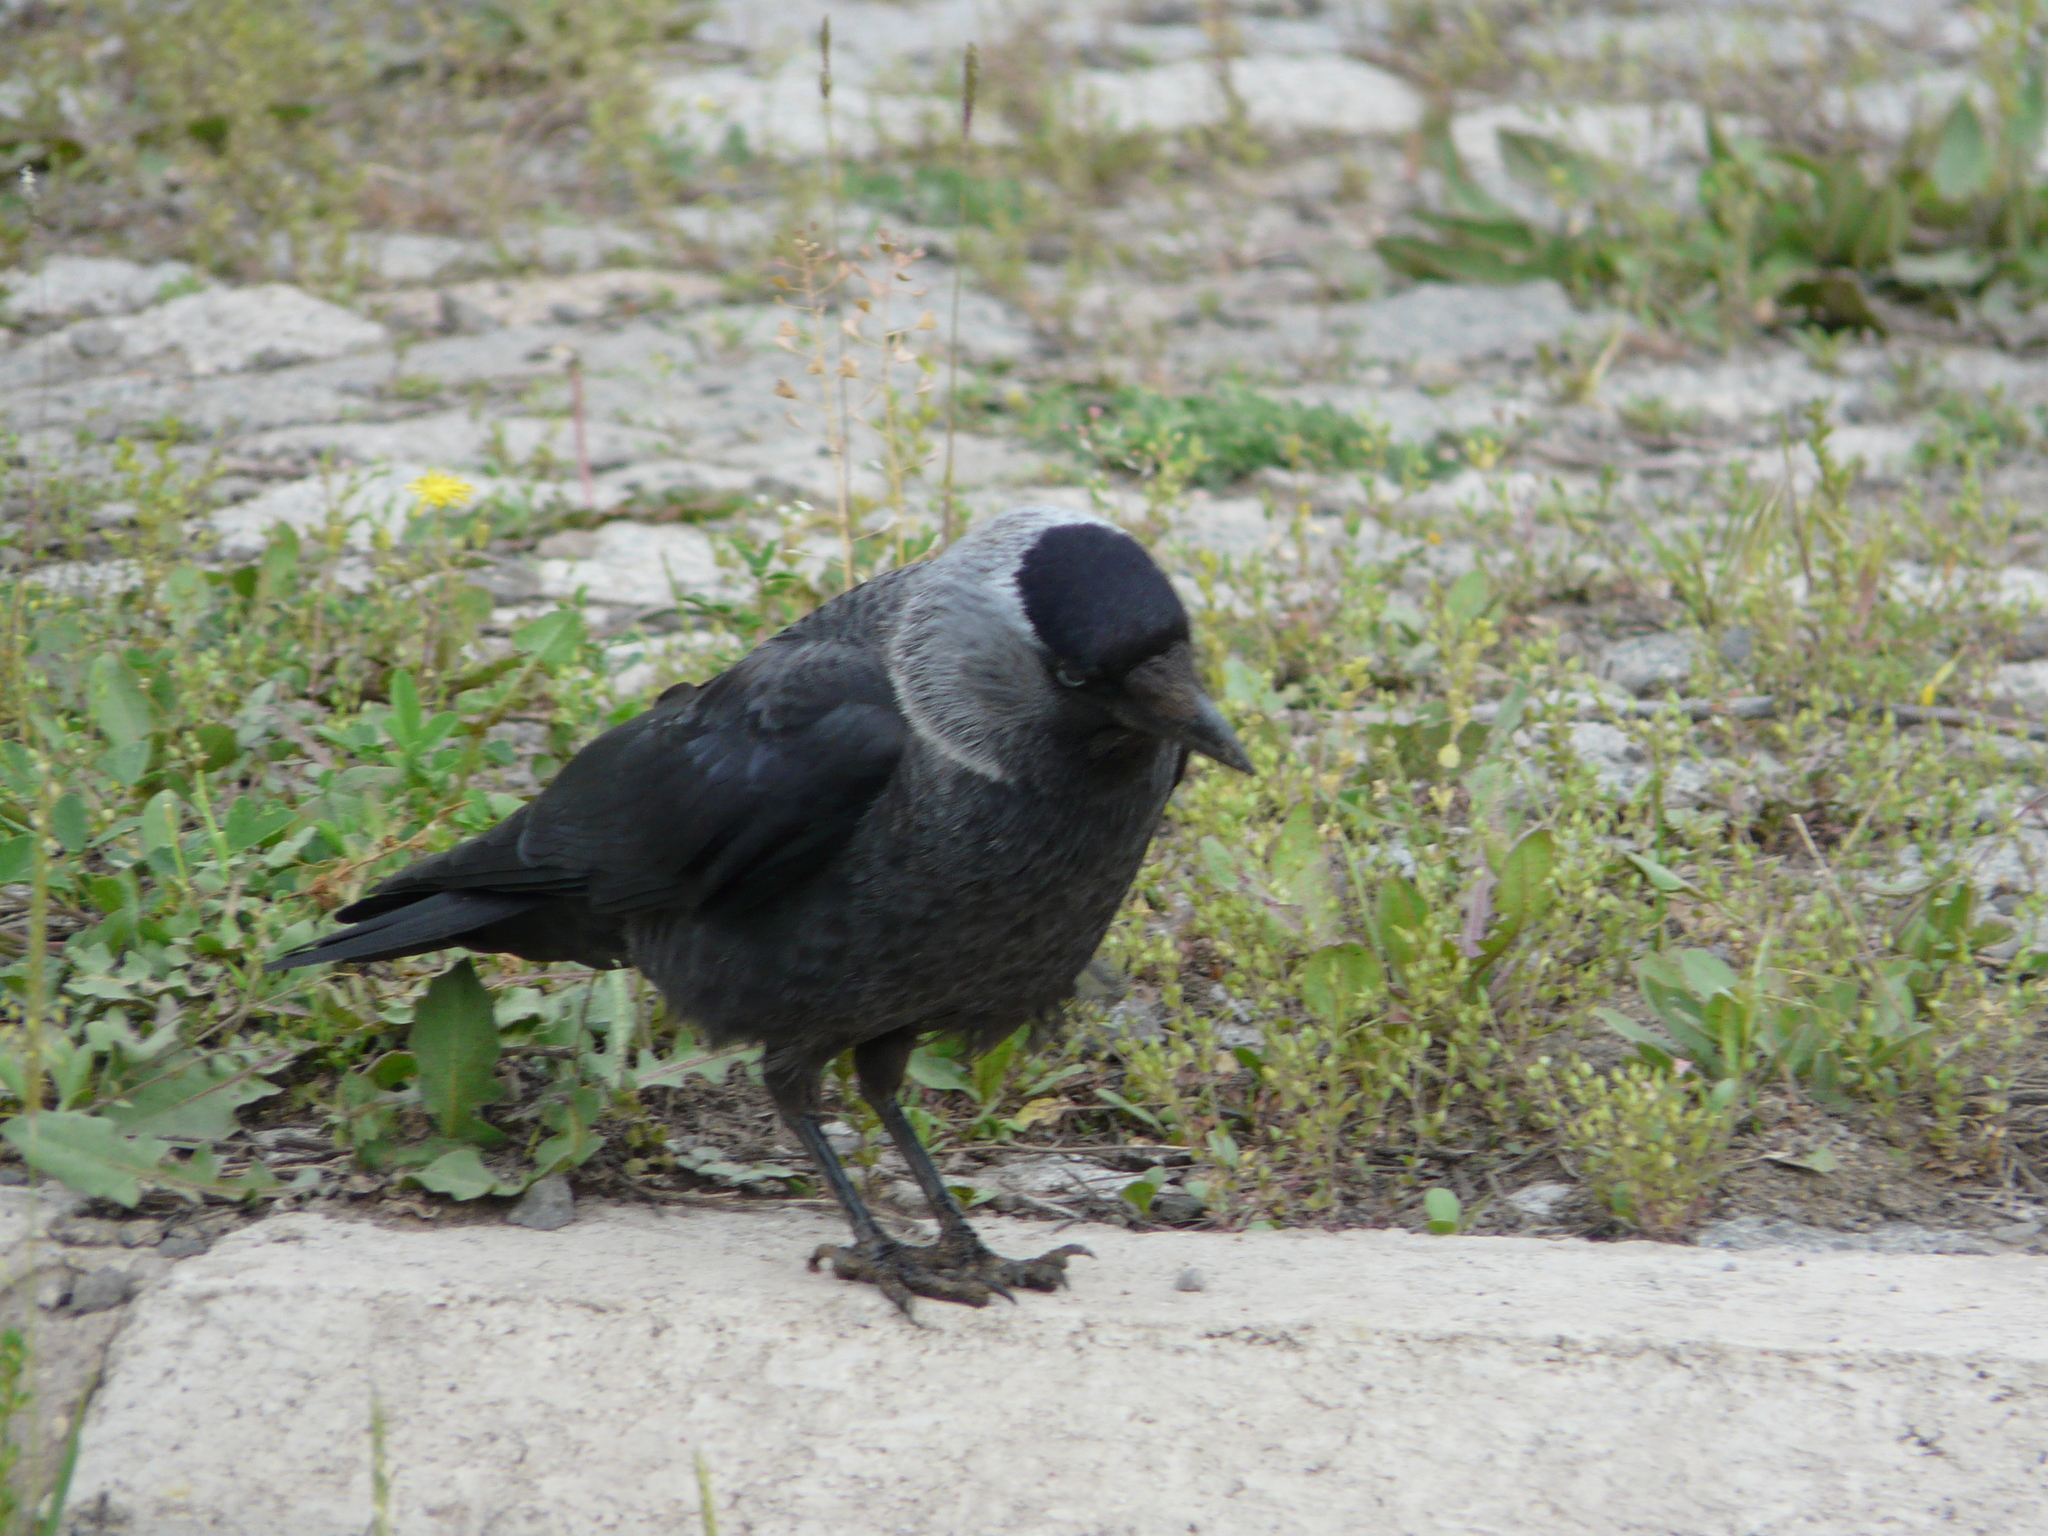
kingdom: Animalia
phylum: Chordata
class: Aves
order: Passeriformes
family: Corvidae
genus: Coloeus
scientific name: Coloeus monedula
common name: Western jackdaw
